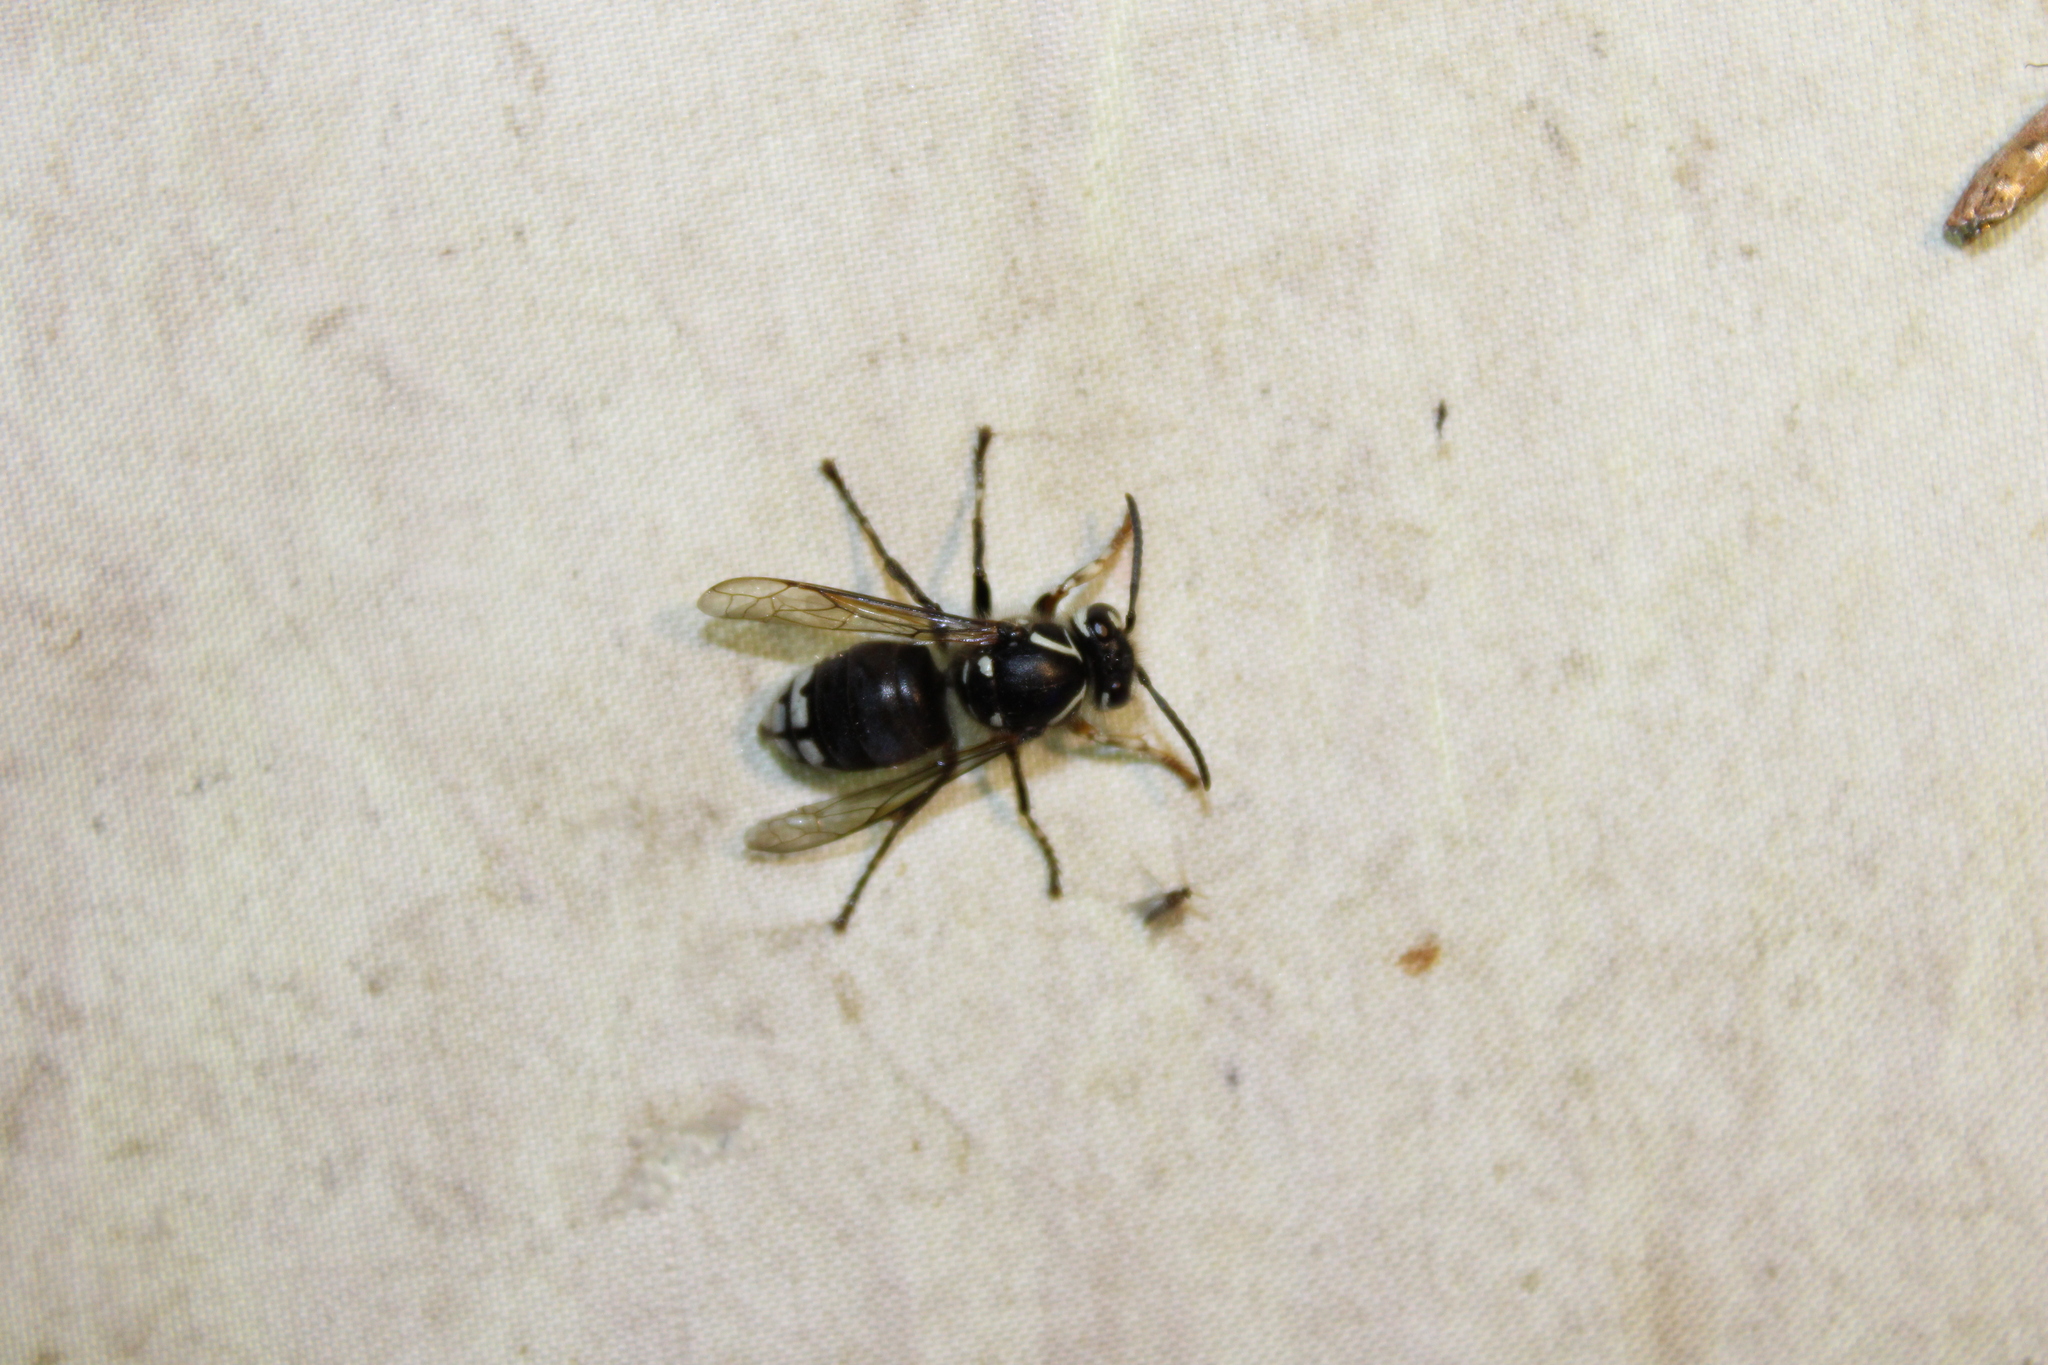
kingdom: Animalia
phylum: Arthropoda
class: Insecta
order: Hymenoptera
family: Vespidae
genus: Dolichovespula
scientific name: Dolichovespula maculata
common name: Bald-faced hornet
